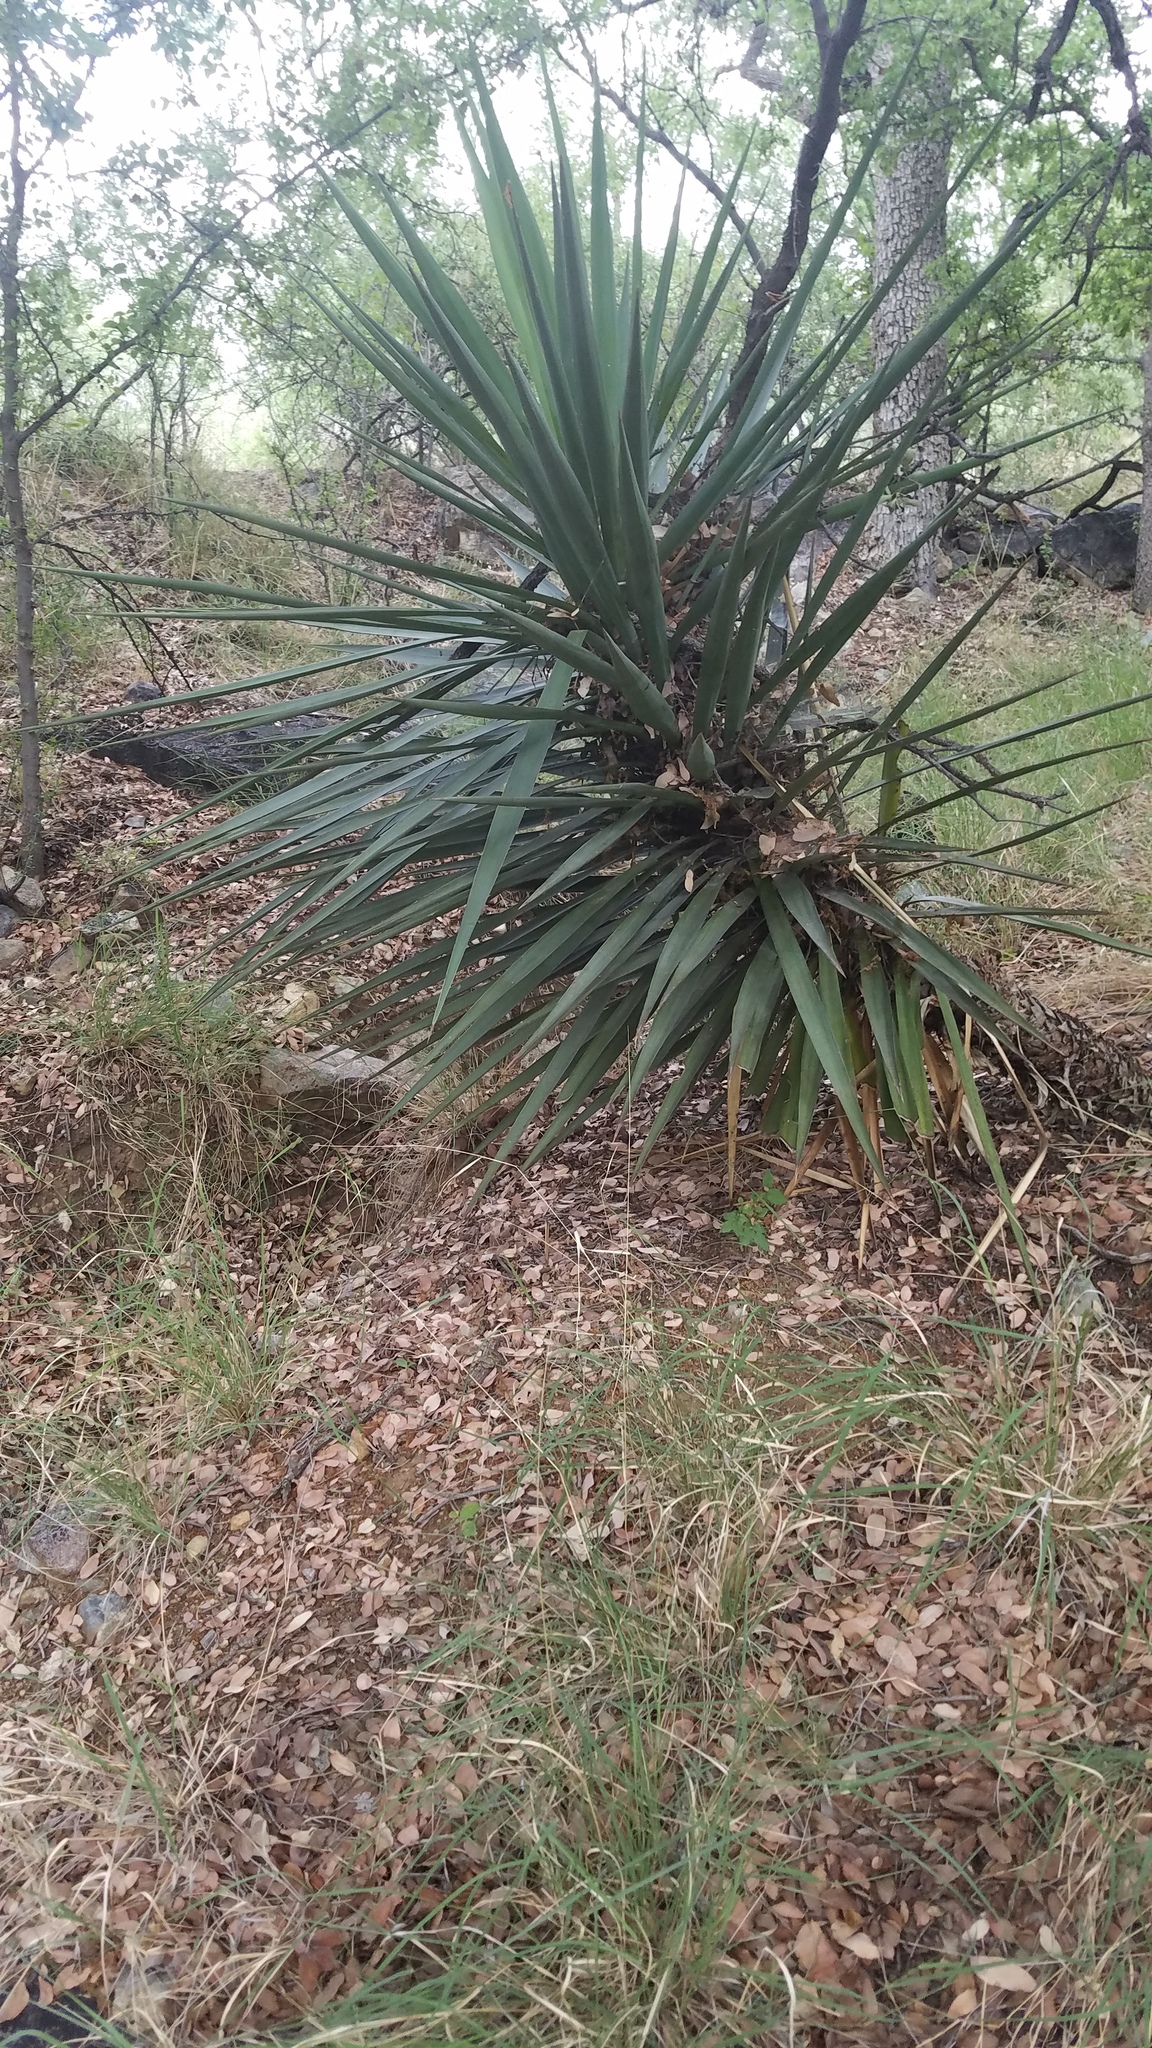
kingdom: Plantae
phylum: Tracheophyta
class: Liliopsida
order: Asparagales
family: Asparagaceae
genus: Yucca
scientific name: Yucca madrensis
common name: Hoary yucca
